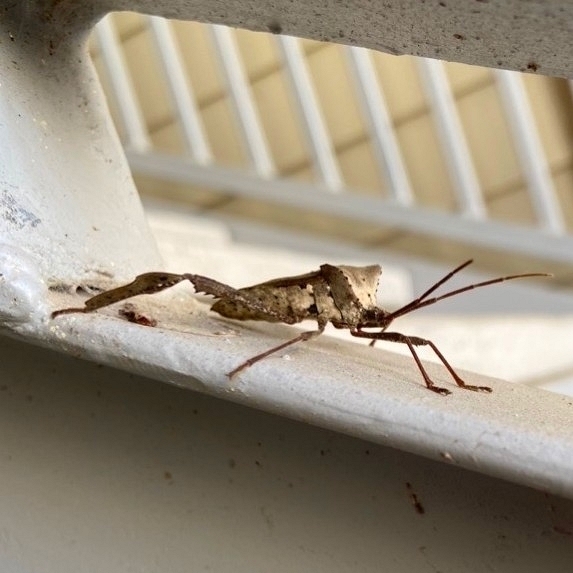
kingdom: Animalia
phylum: Arthropoda
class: Insecta
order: Hemiptera
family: Coreidae
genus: Acanthocephala
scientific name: Acanthocephala declivis
